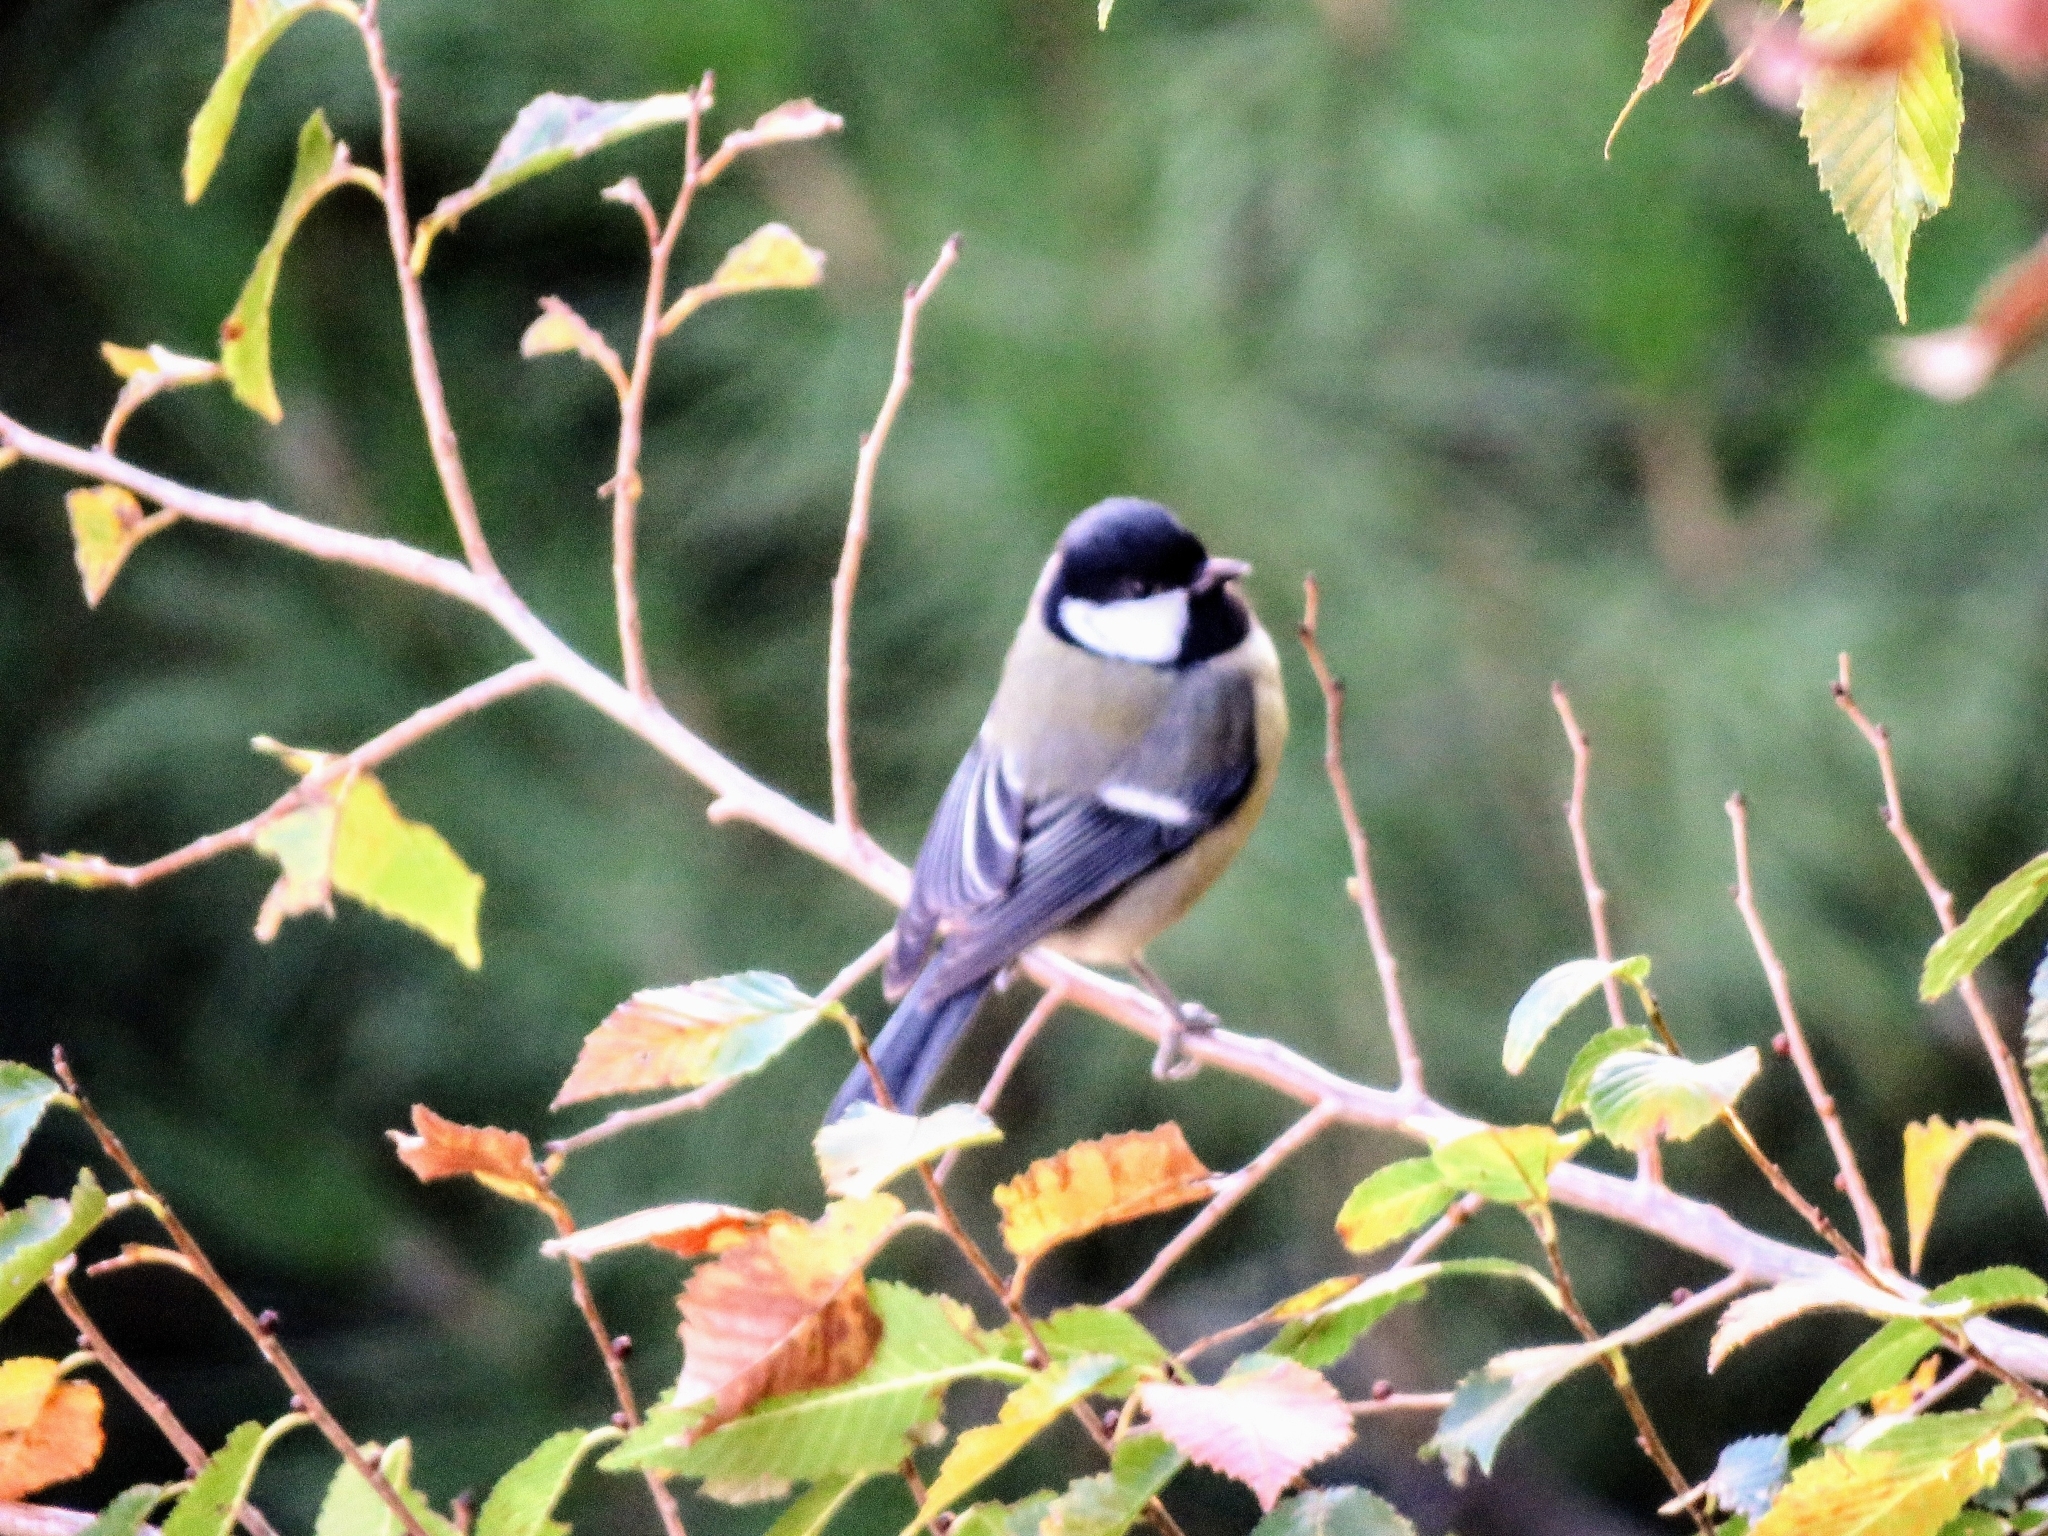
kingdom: Animalia
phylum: Chordata
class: Aves
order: Passeriformes
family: Paridae
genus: Parus
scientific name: Parus major
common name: Great tit
